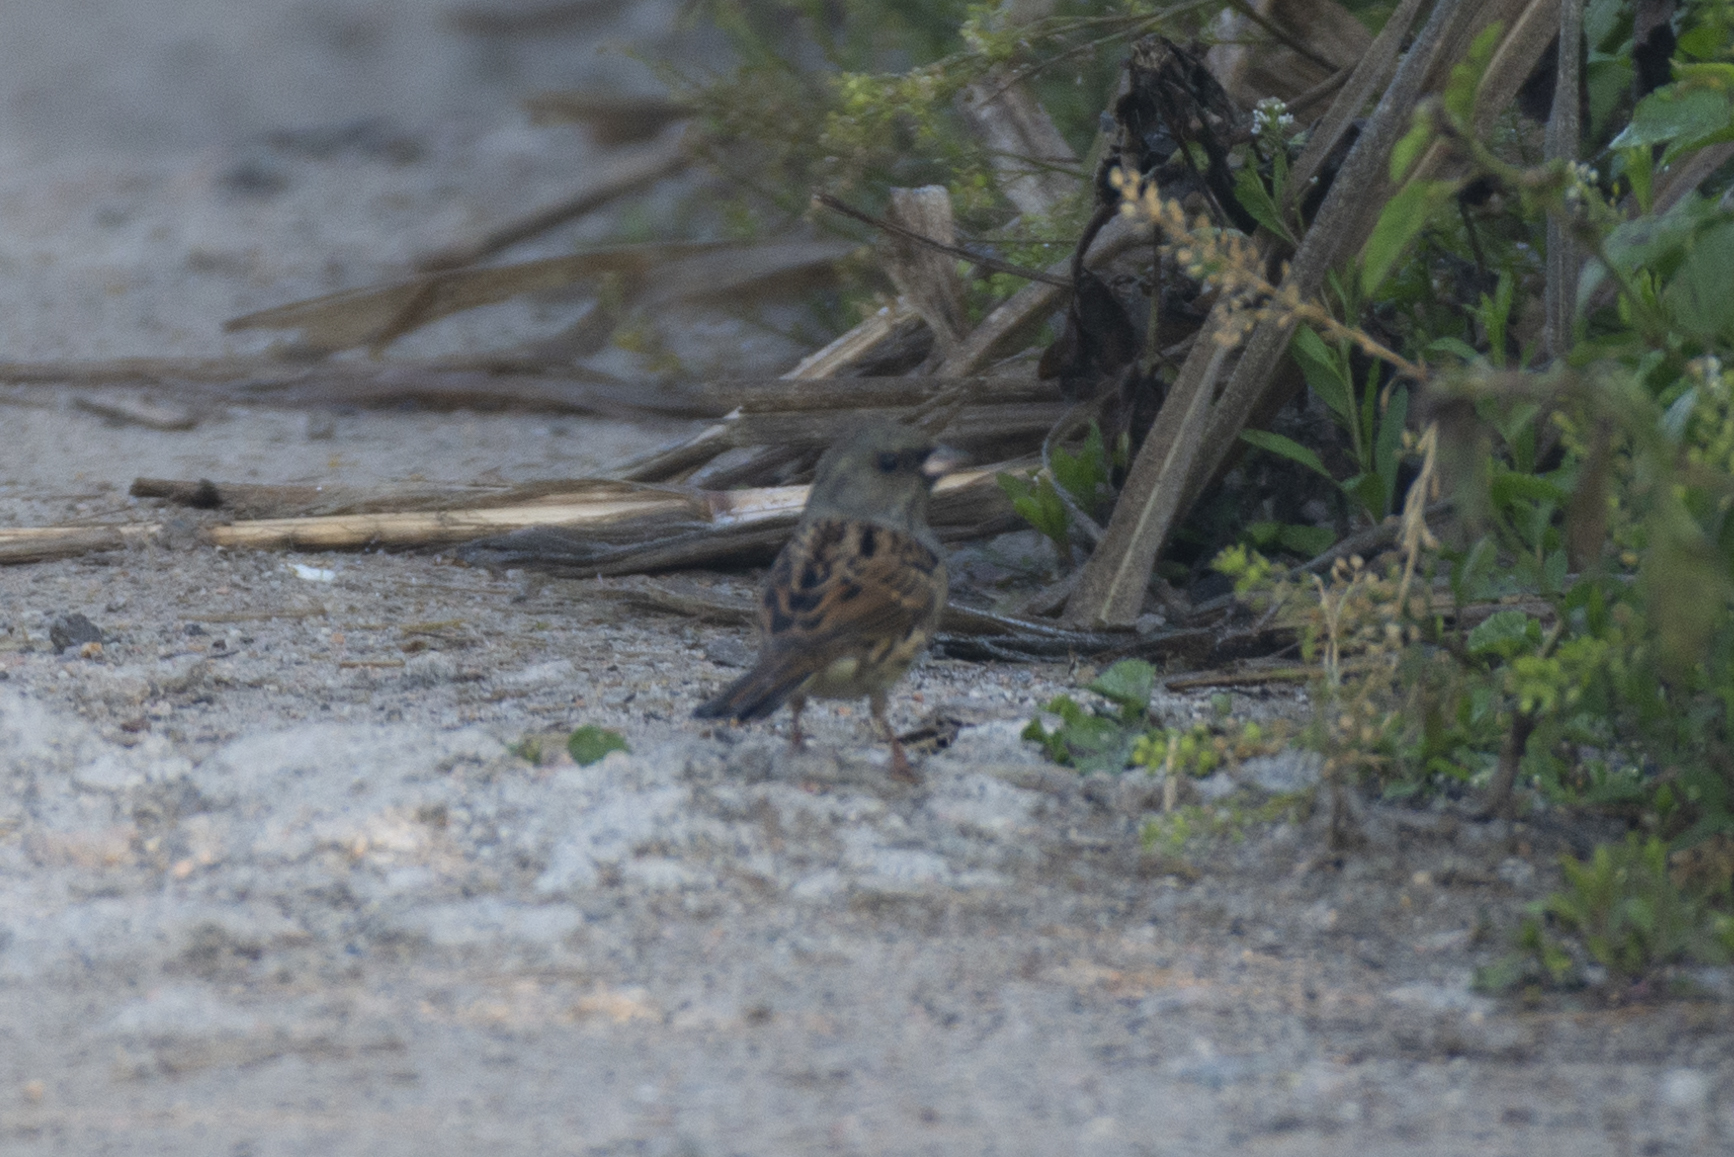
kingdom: Animalia
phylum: Chordata
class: Aves
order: Passeriformes
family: Emberizidae
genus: Emberiza
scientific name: Emberiza spodocephala
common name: Black-faced bunting
